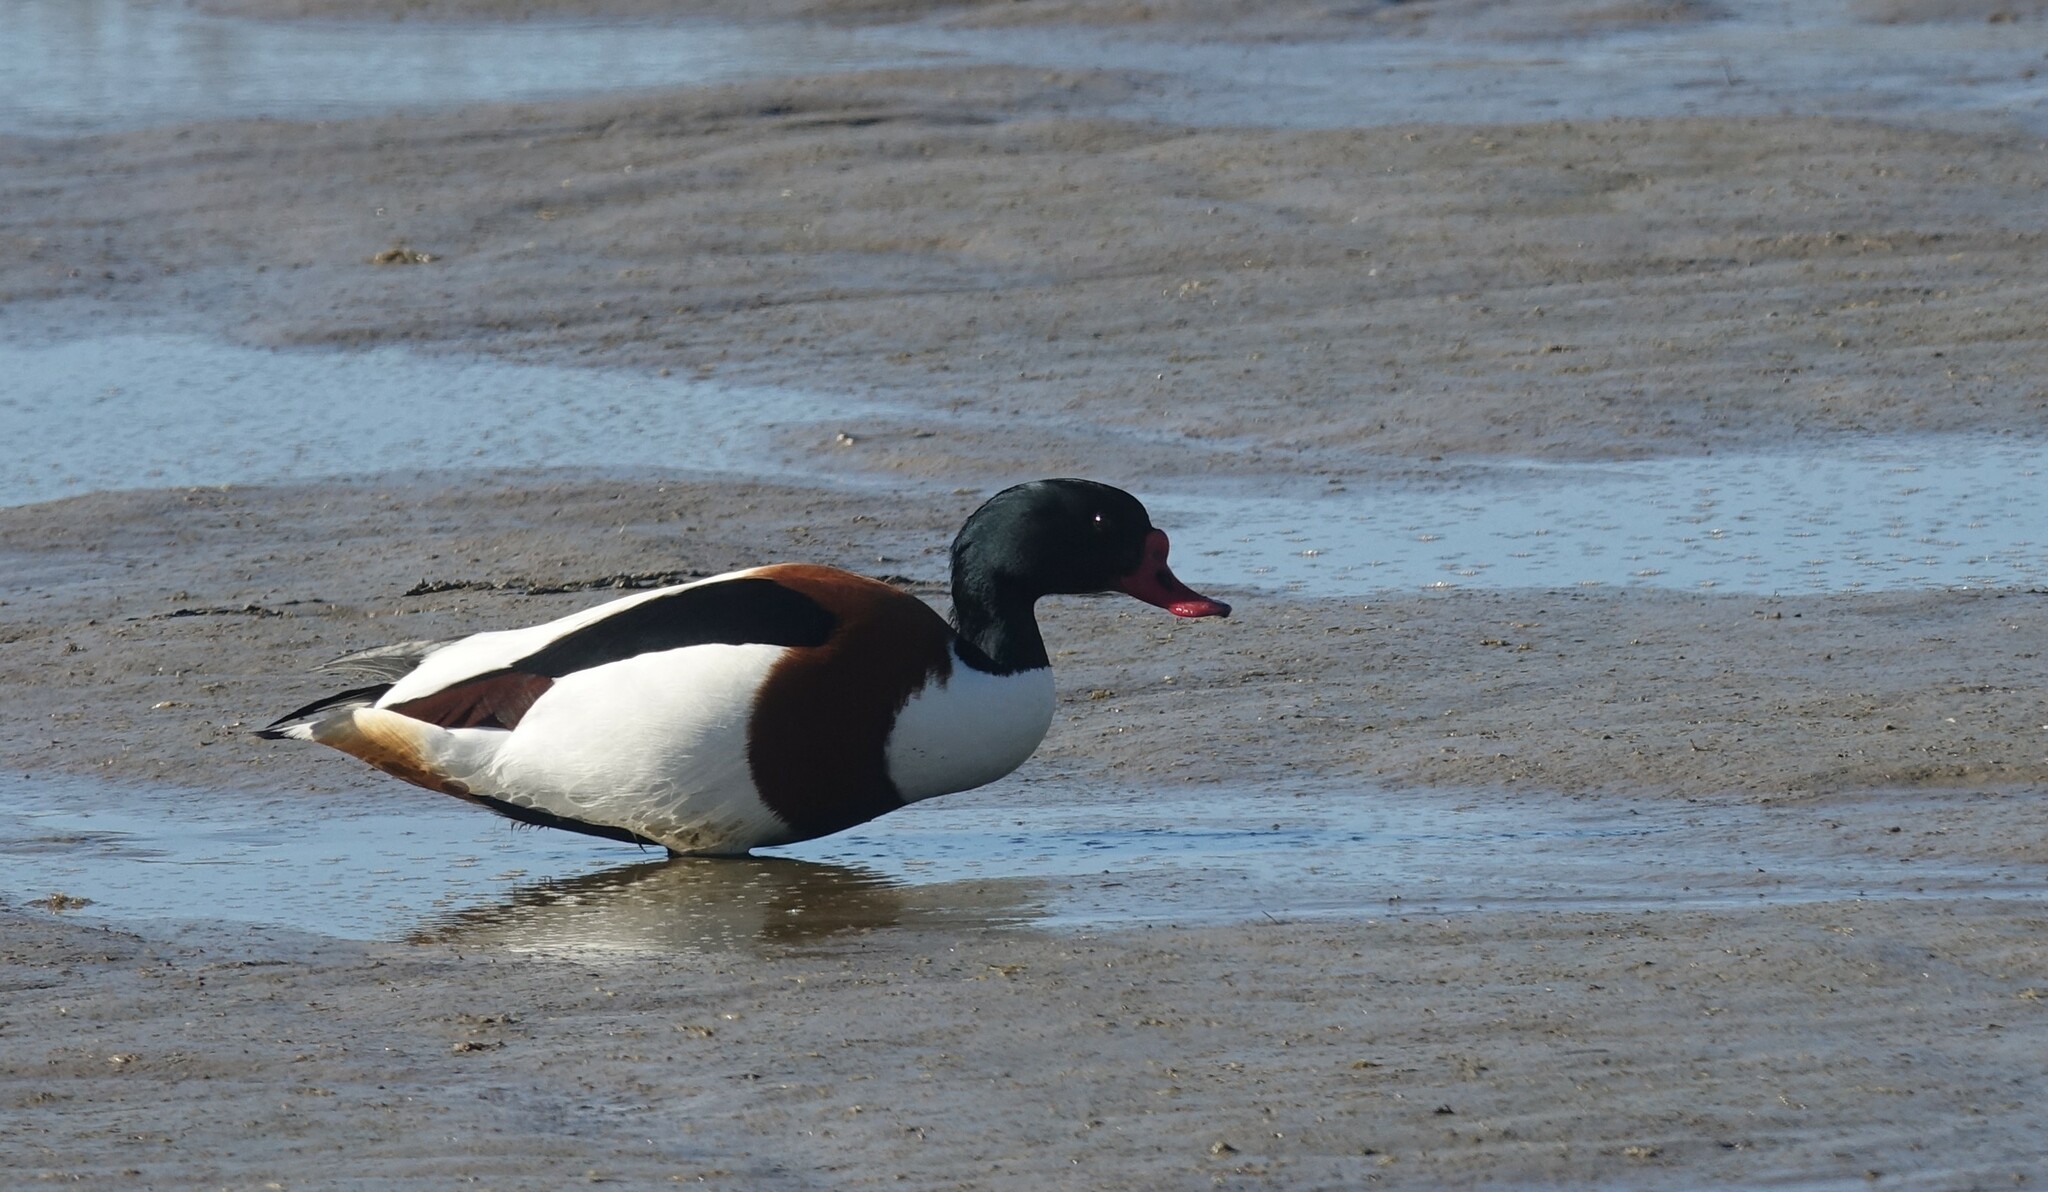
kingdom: Animalia
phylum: Chordata
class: Aves
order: Anseriformes
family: Anatidae
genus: Tadorna
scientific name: Tadorna tadorna
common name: Common shelduck
